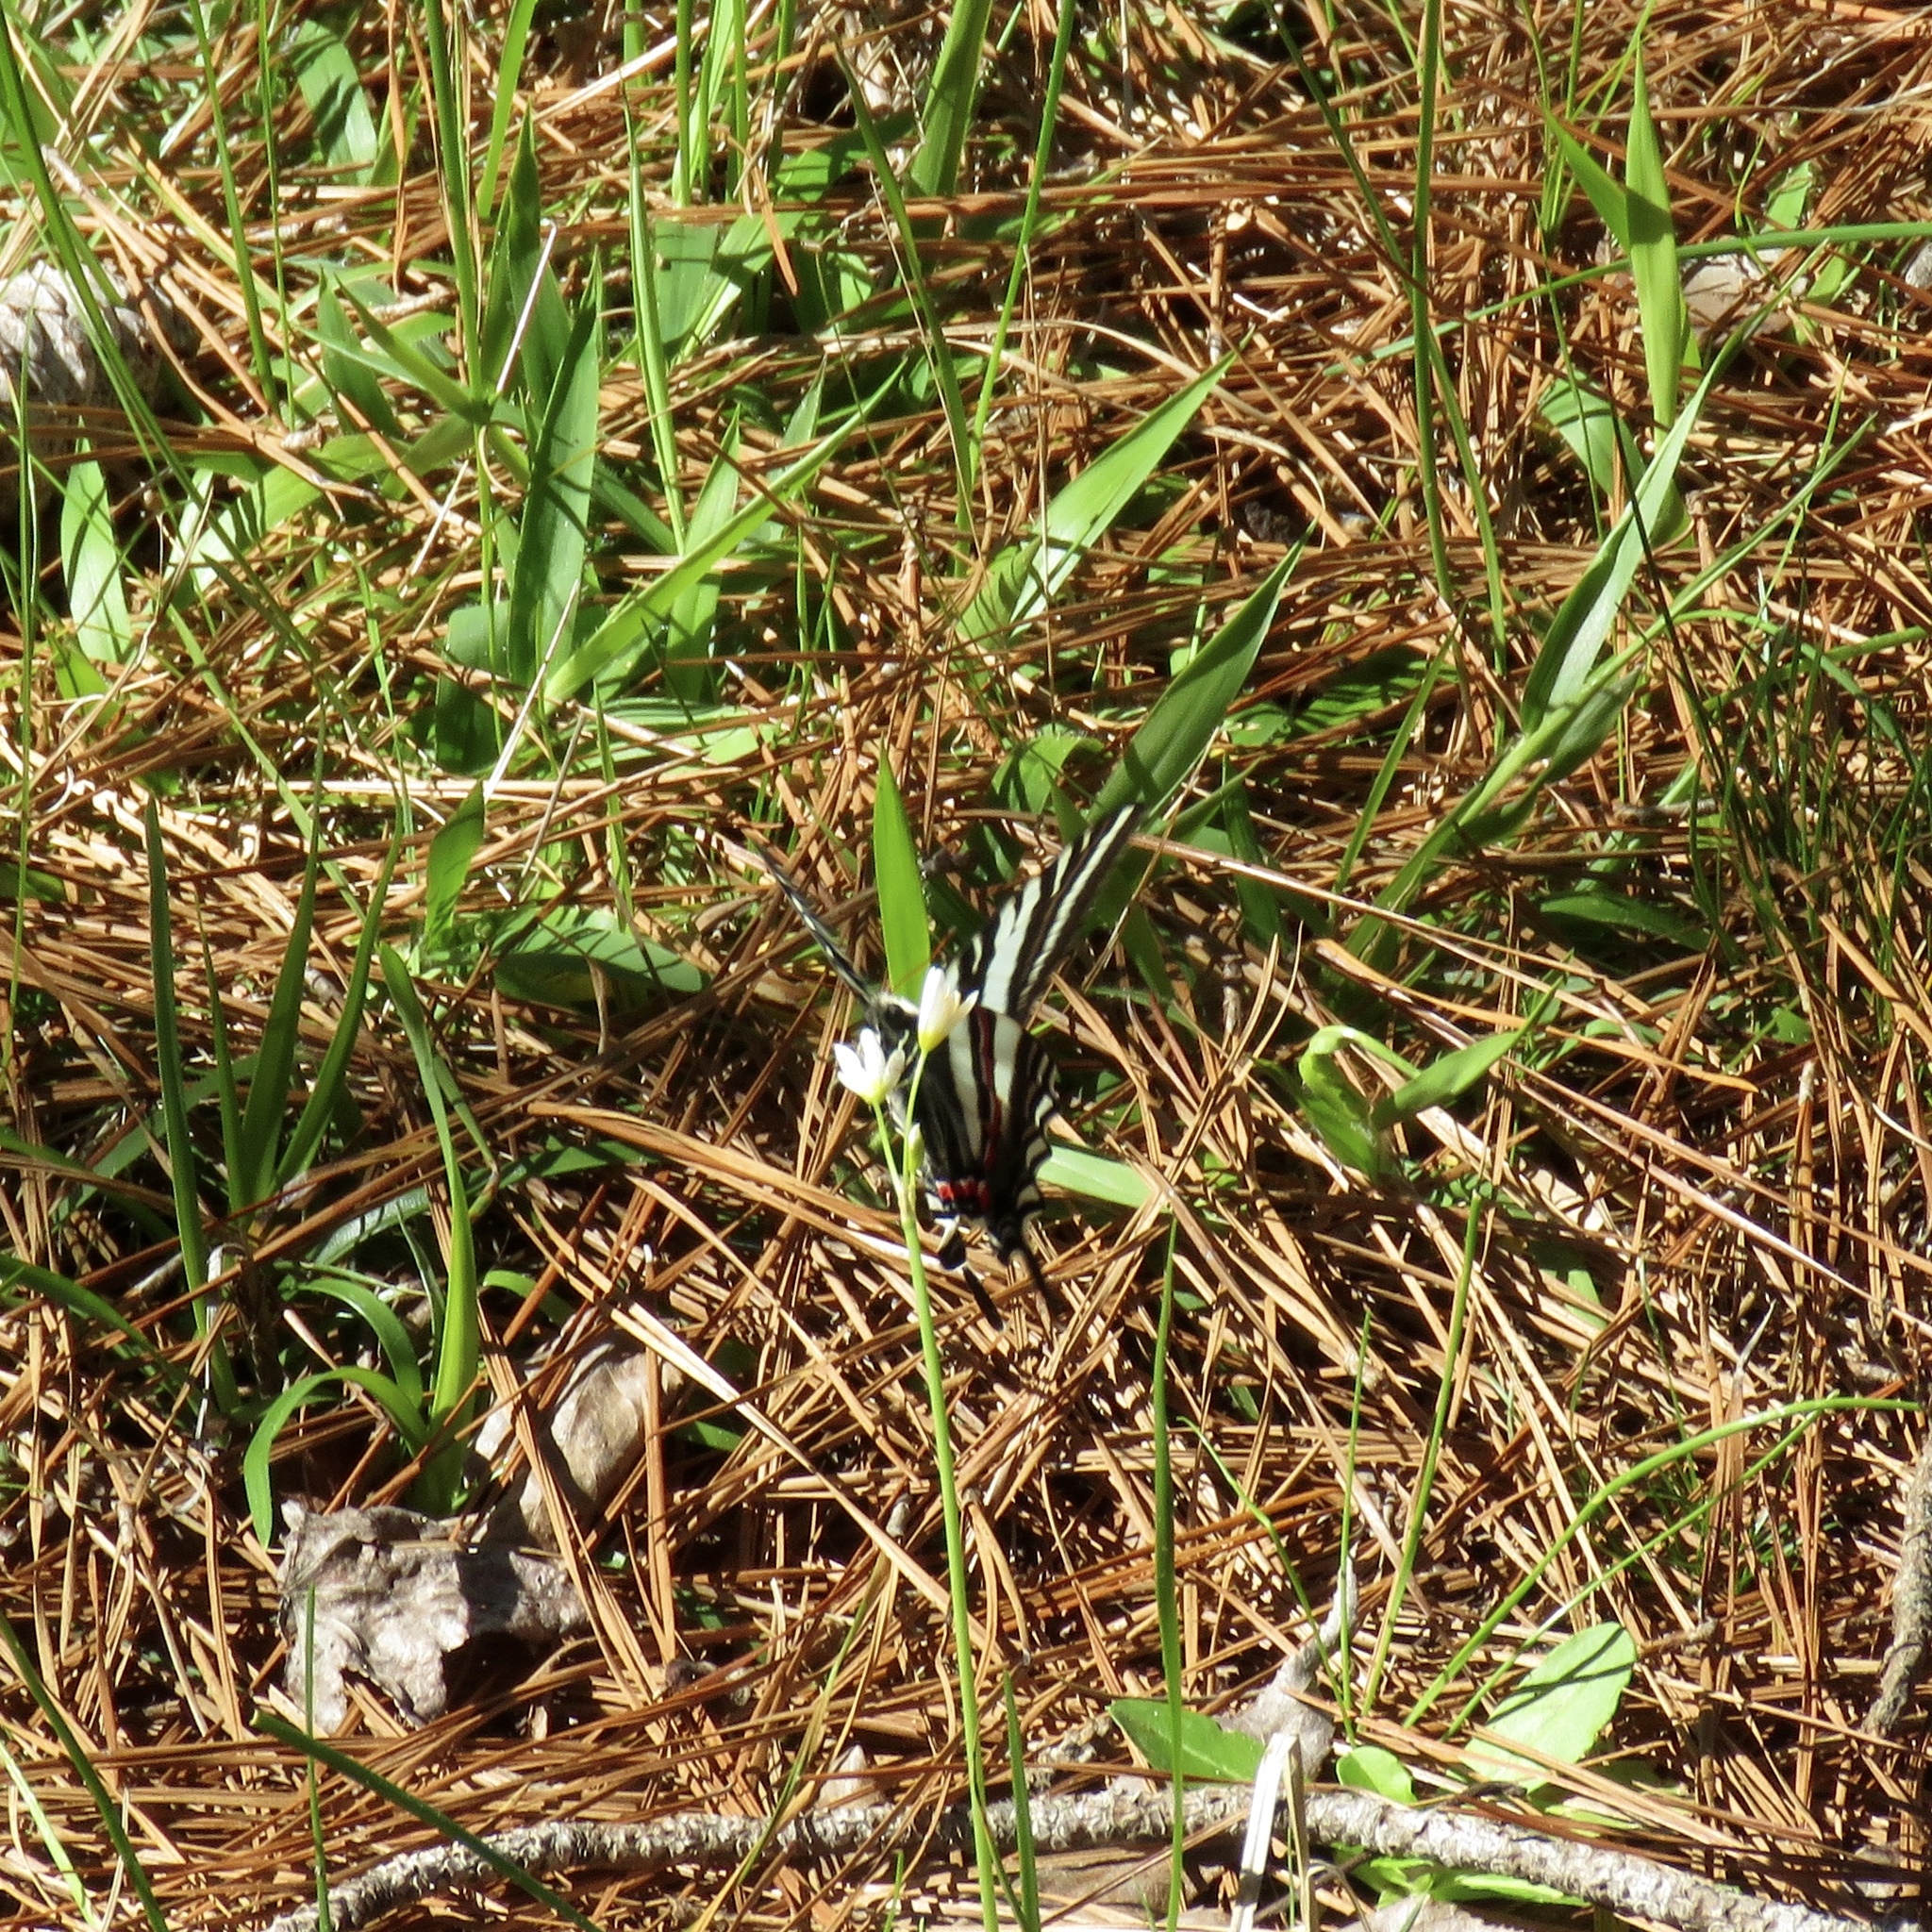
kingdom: Animalia
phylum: Arthropoda
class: Insecta
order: Lepidoptera
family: Papilionidae
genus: Protographium
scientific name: Protographium marcellus
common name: Zebra swallowtail
